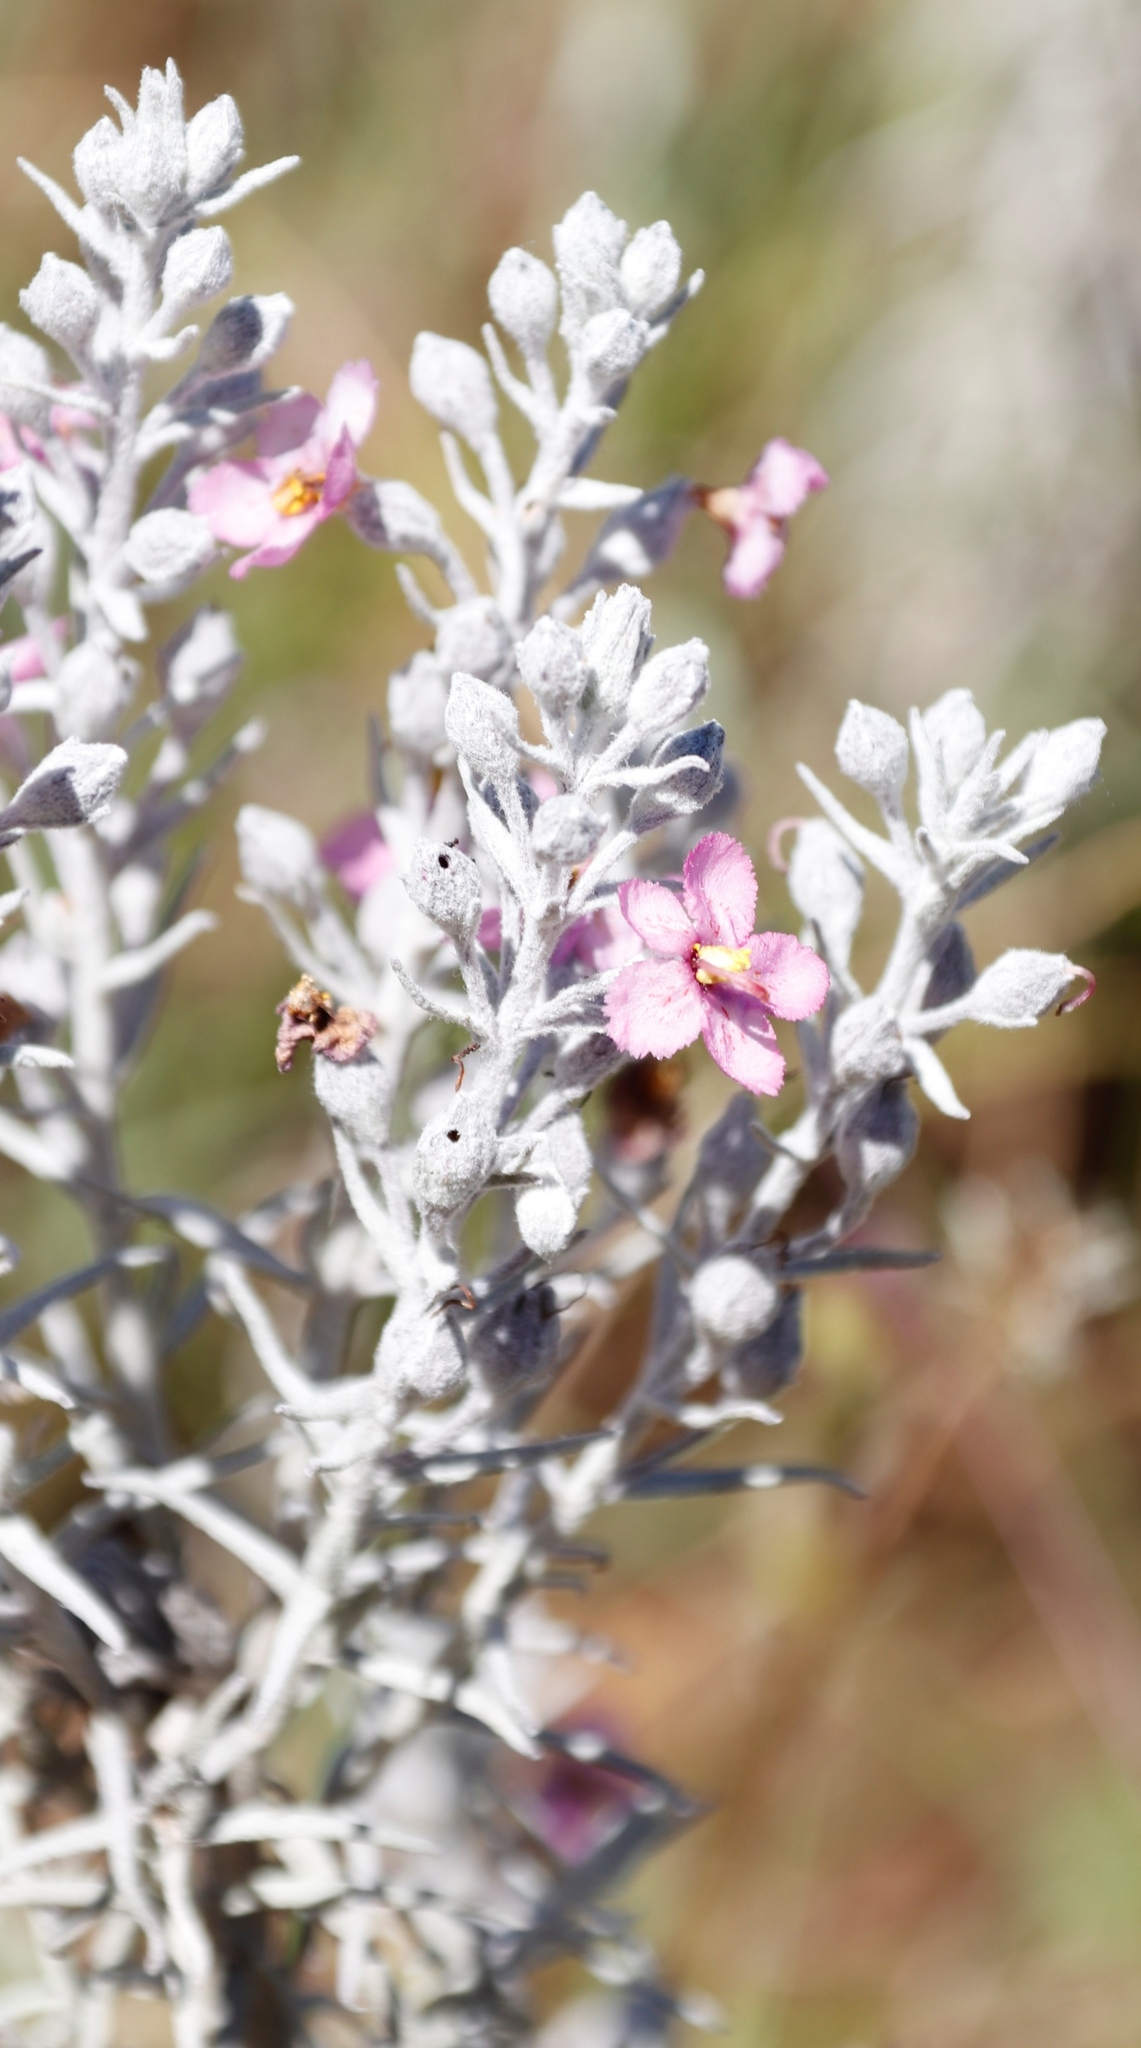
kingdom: Plantae
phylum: Tracheophyta
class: Magnoliopsida
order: Lamiales
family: Orobanchaceae
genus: Sopubia
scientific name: Sopubia cana
